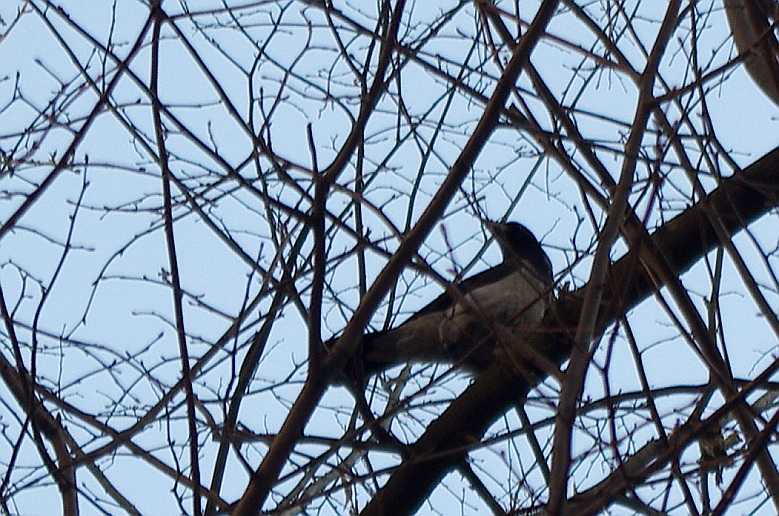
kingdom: Animalia
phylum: Chordata
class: Aves
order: Passeriformes
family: Corvidae
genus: Corvus
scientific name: Corvus cornix
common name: Hooded crow
